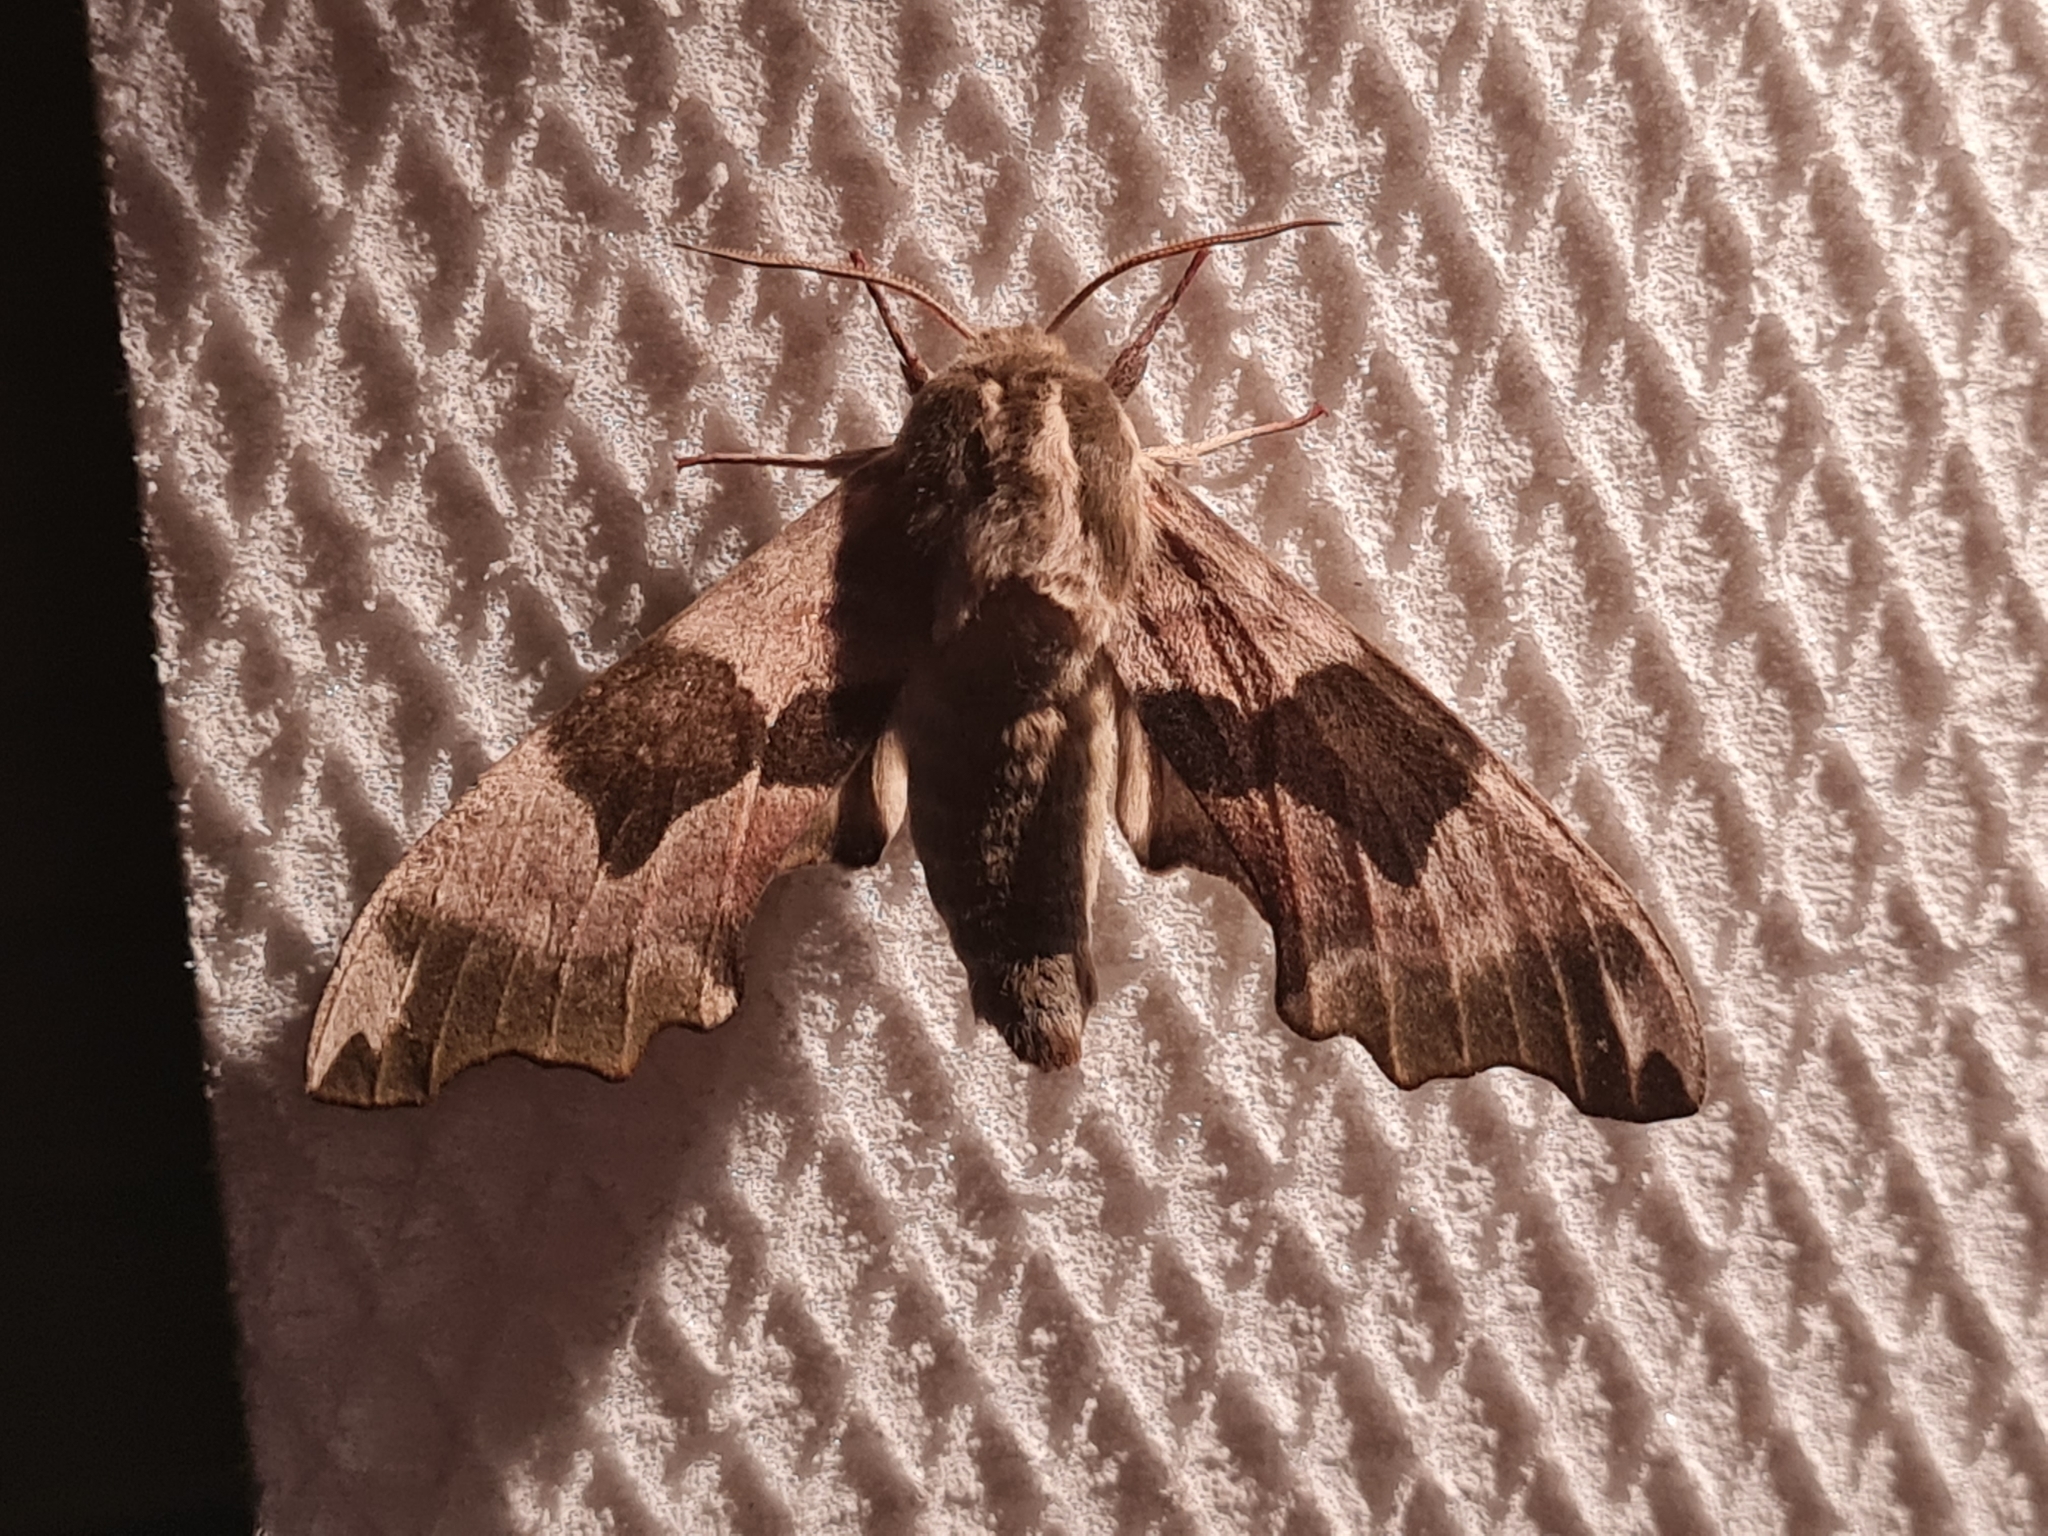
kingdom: Animalia
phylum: Arthropoda
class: Insecta
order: Lepidoptera
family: Sphingidae
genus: Mimas
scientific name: Mimas tiliae
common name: Lime hawk-moth
